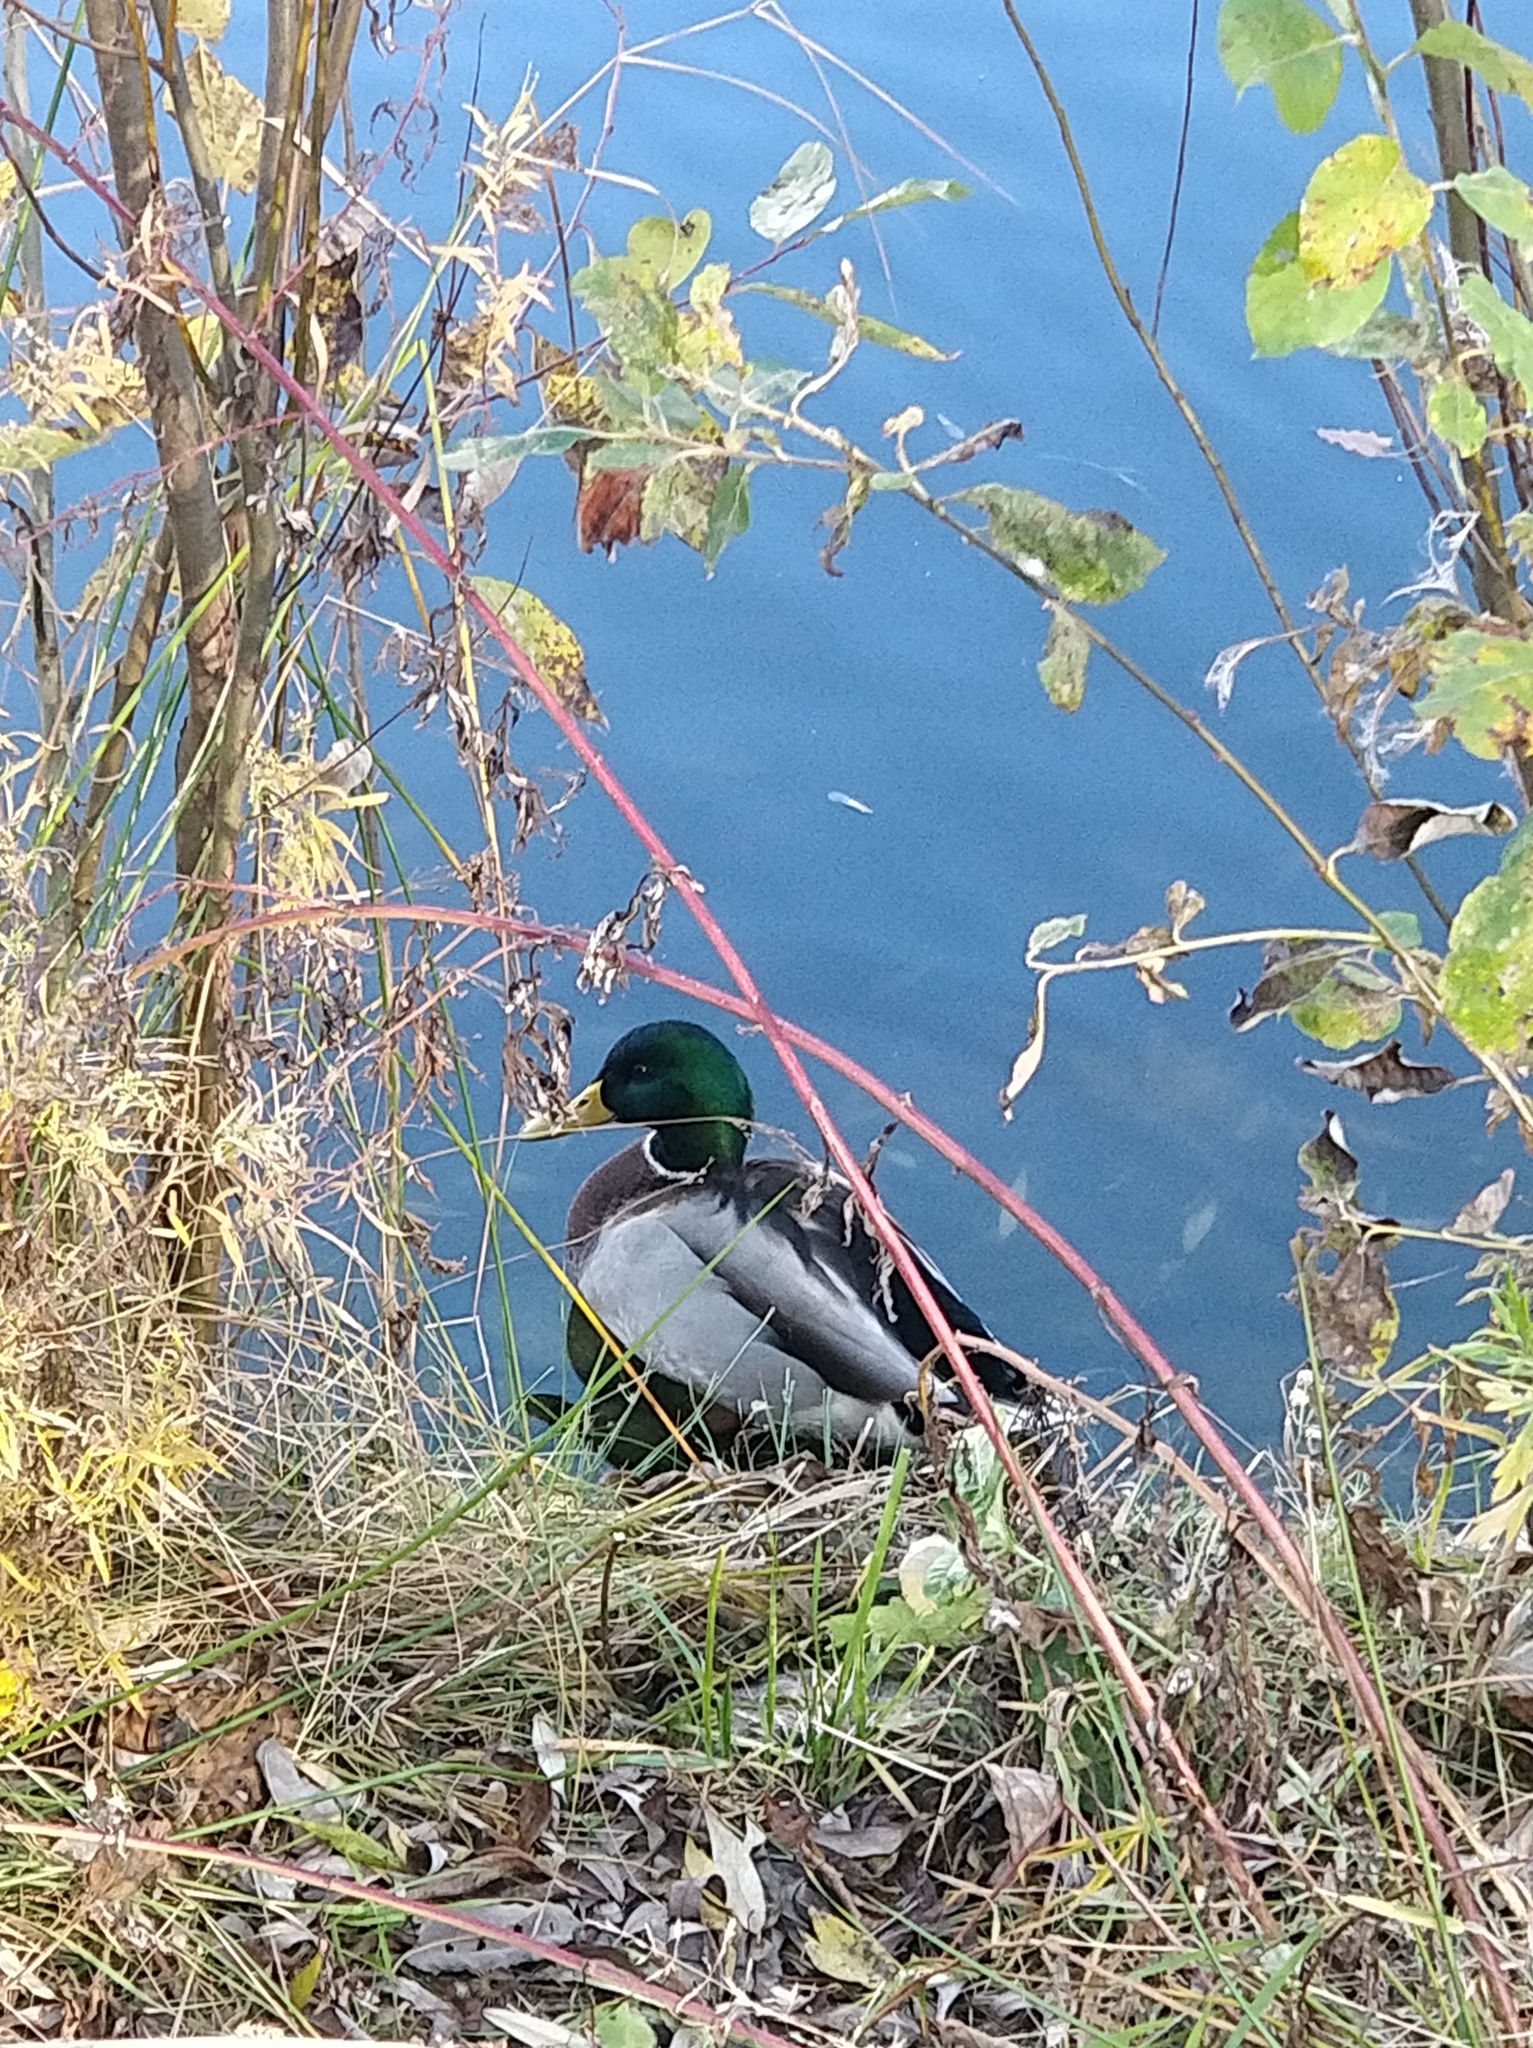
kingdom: Animalia
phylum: Chordata
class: Aves
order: Anseriformes
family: Anatidae
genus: Anas
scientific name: Anas platyrhynchos
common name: Mallard
